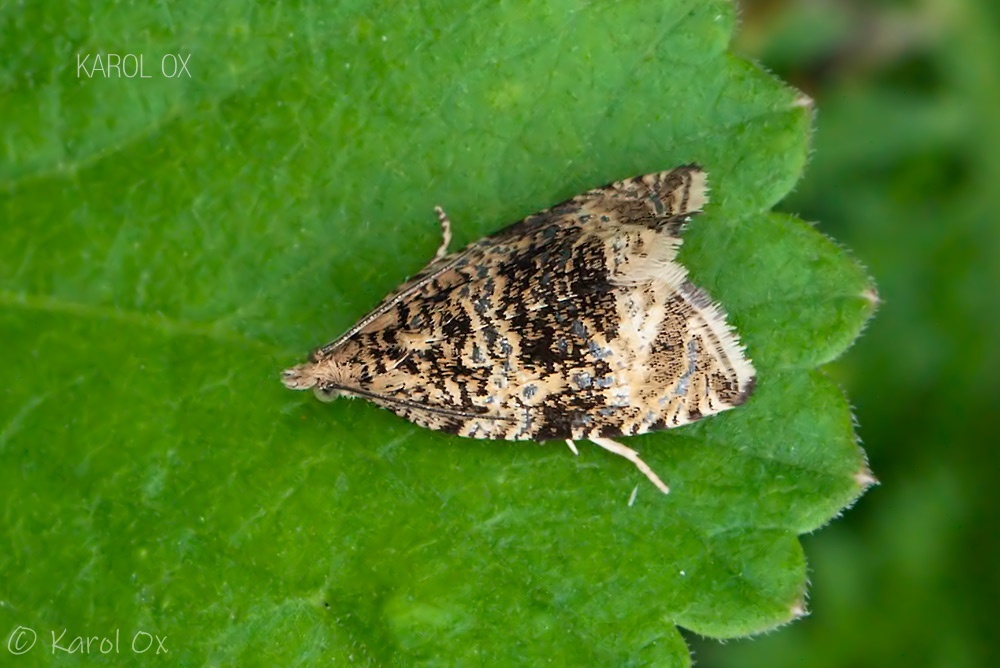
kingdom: Animalia
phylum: Arthropoda
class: Insecta
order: Lepidoptera
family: Tortricidae
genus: Syricoris
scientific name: Syricoris lacunana
